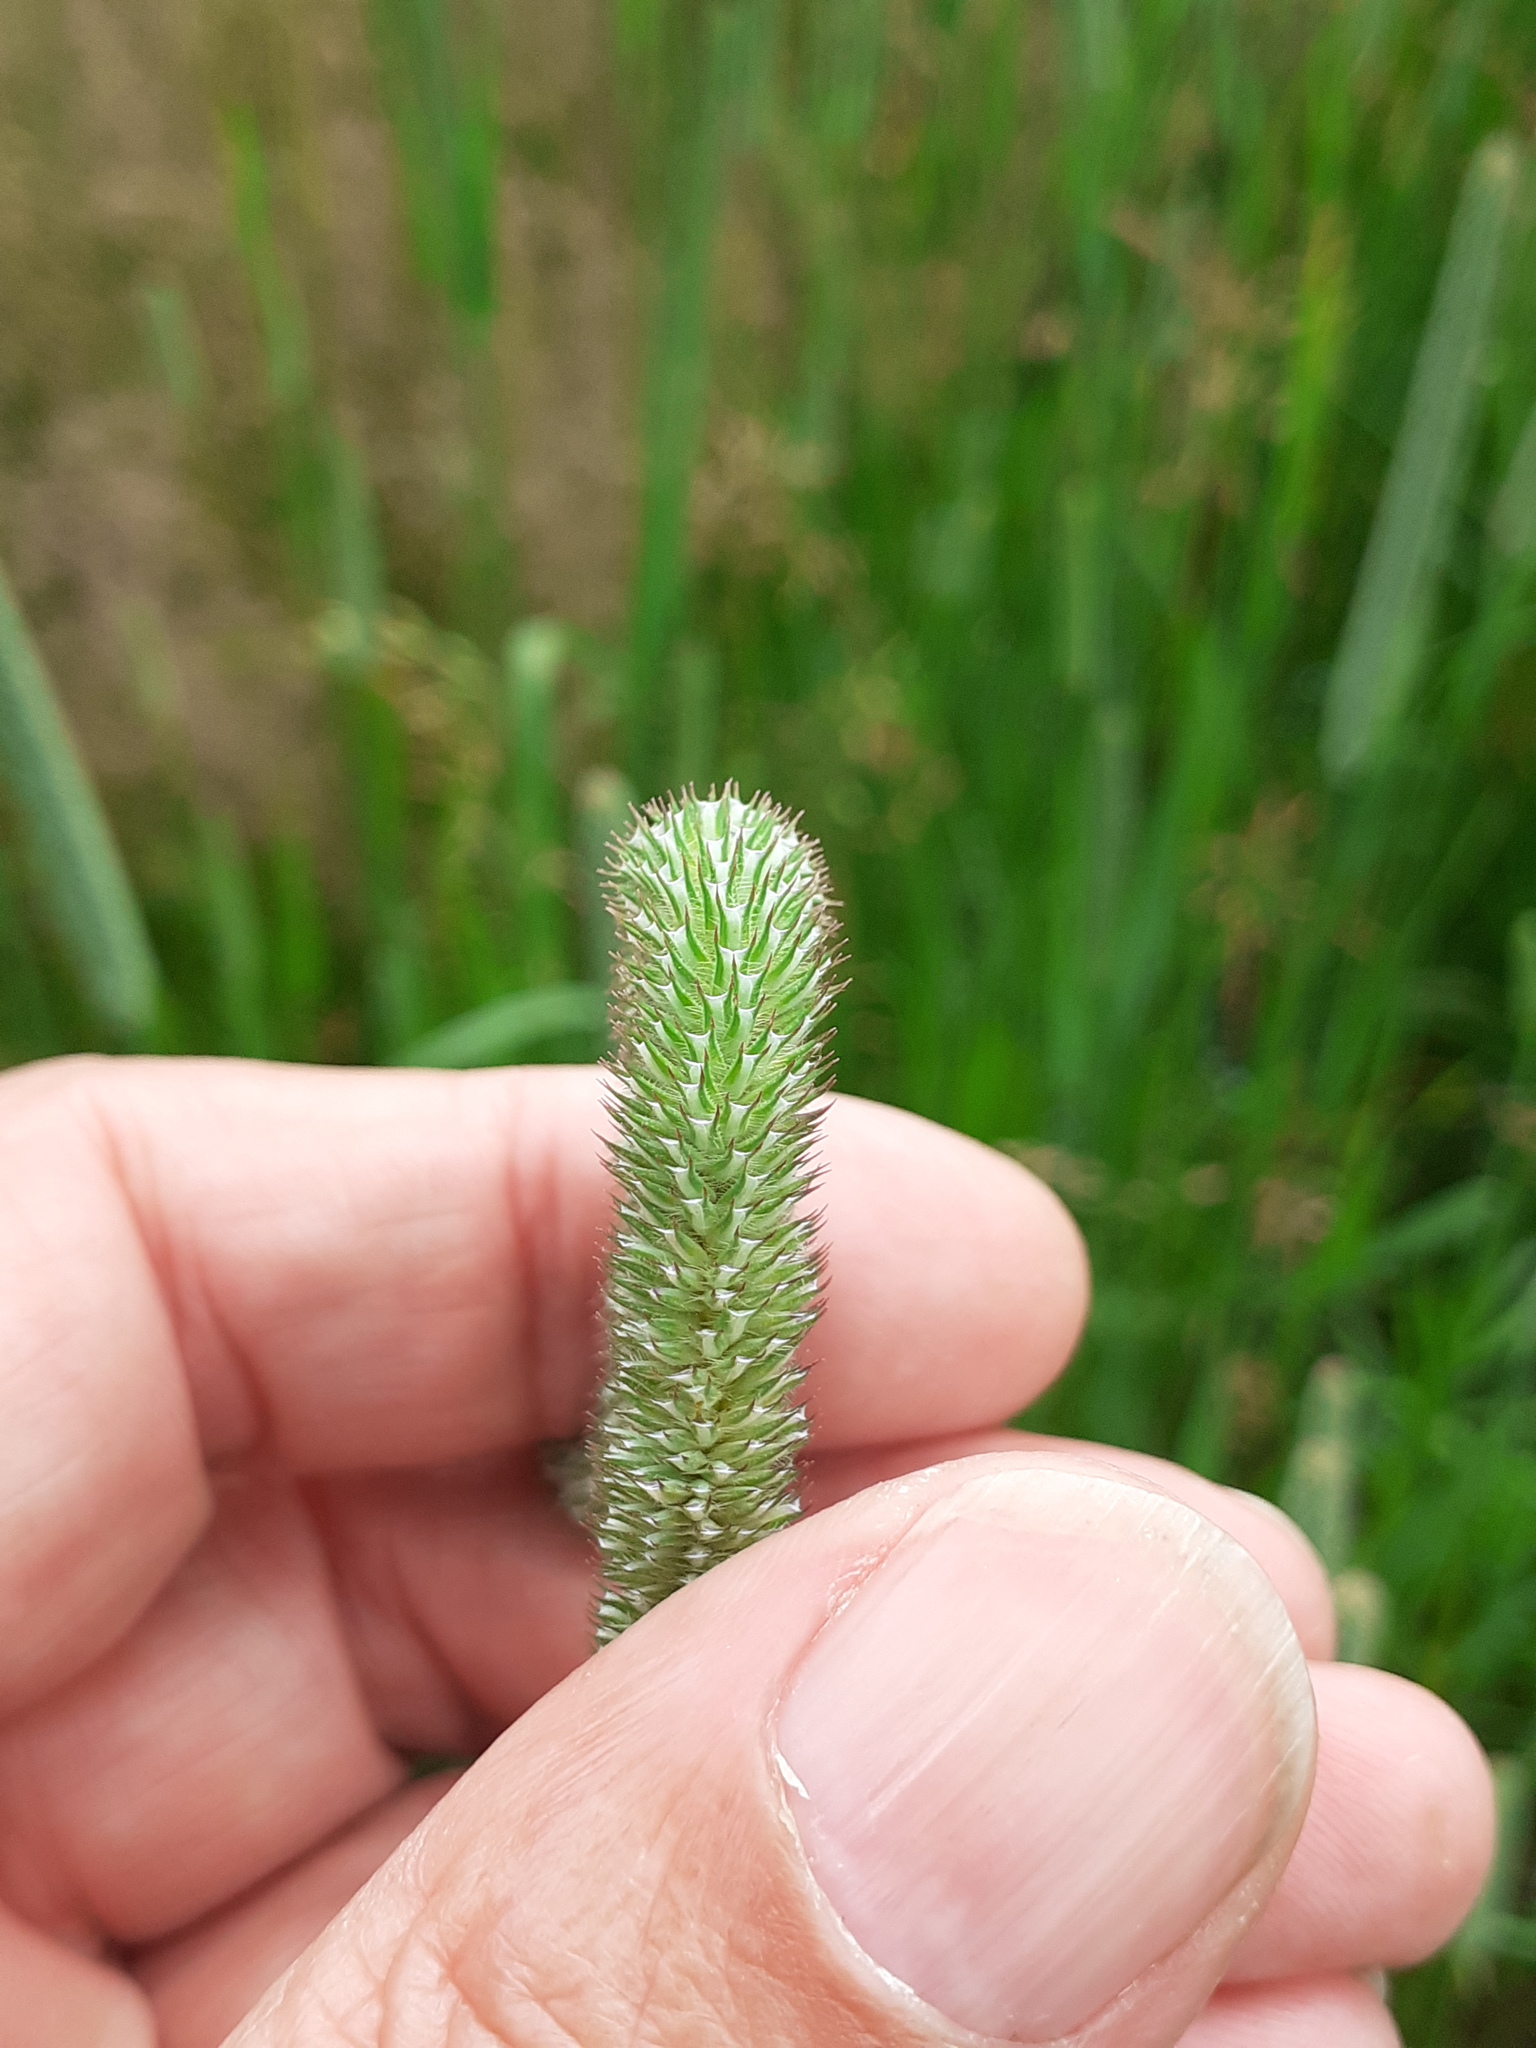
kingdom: Plantae
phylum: Tracheophyta
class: Liliopsida
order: Poales
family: Poaceae
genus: Phleum
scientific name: Phleum pratense
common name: Timothy grass
